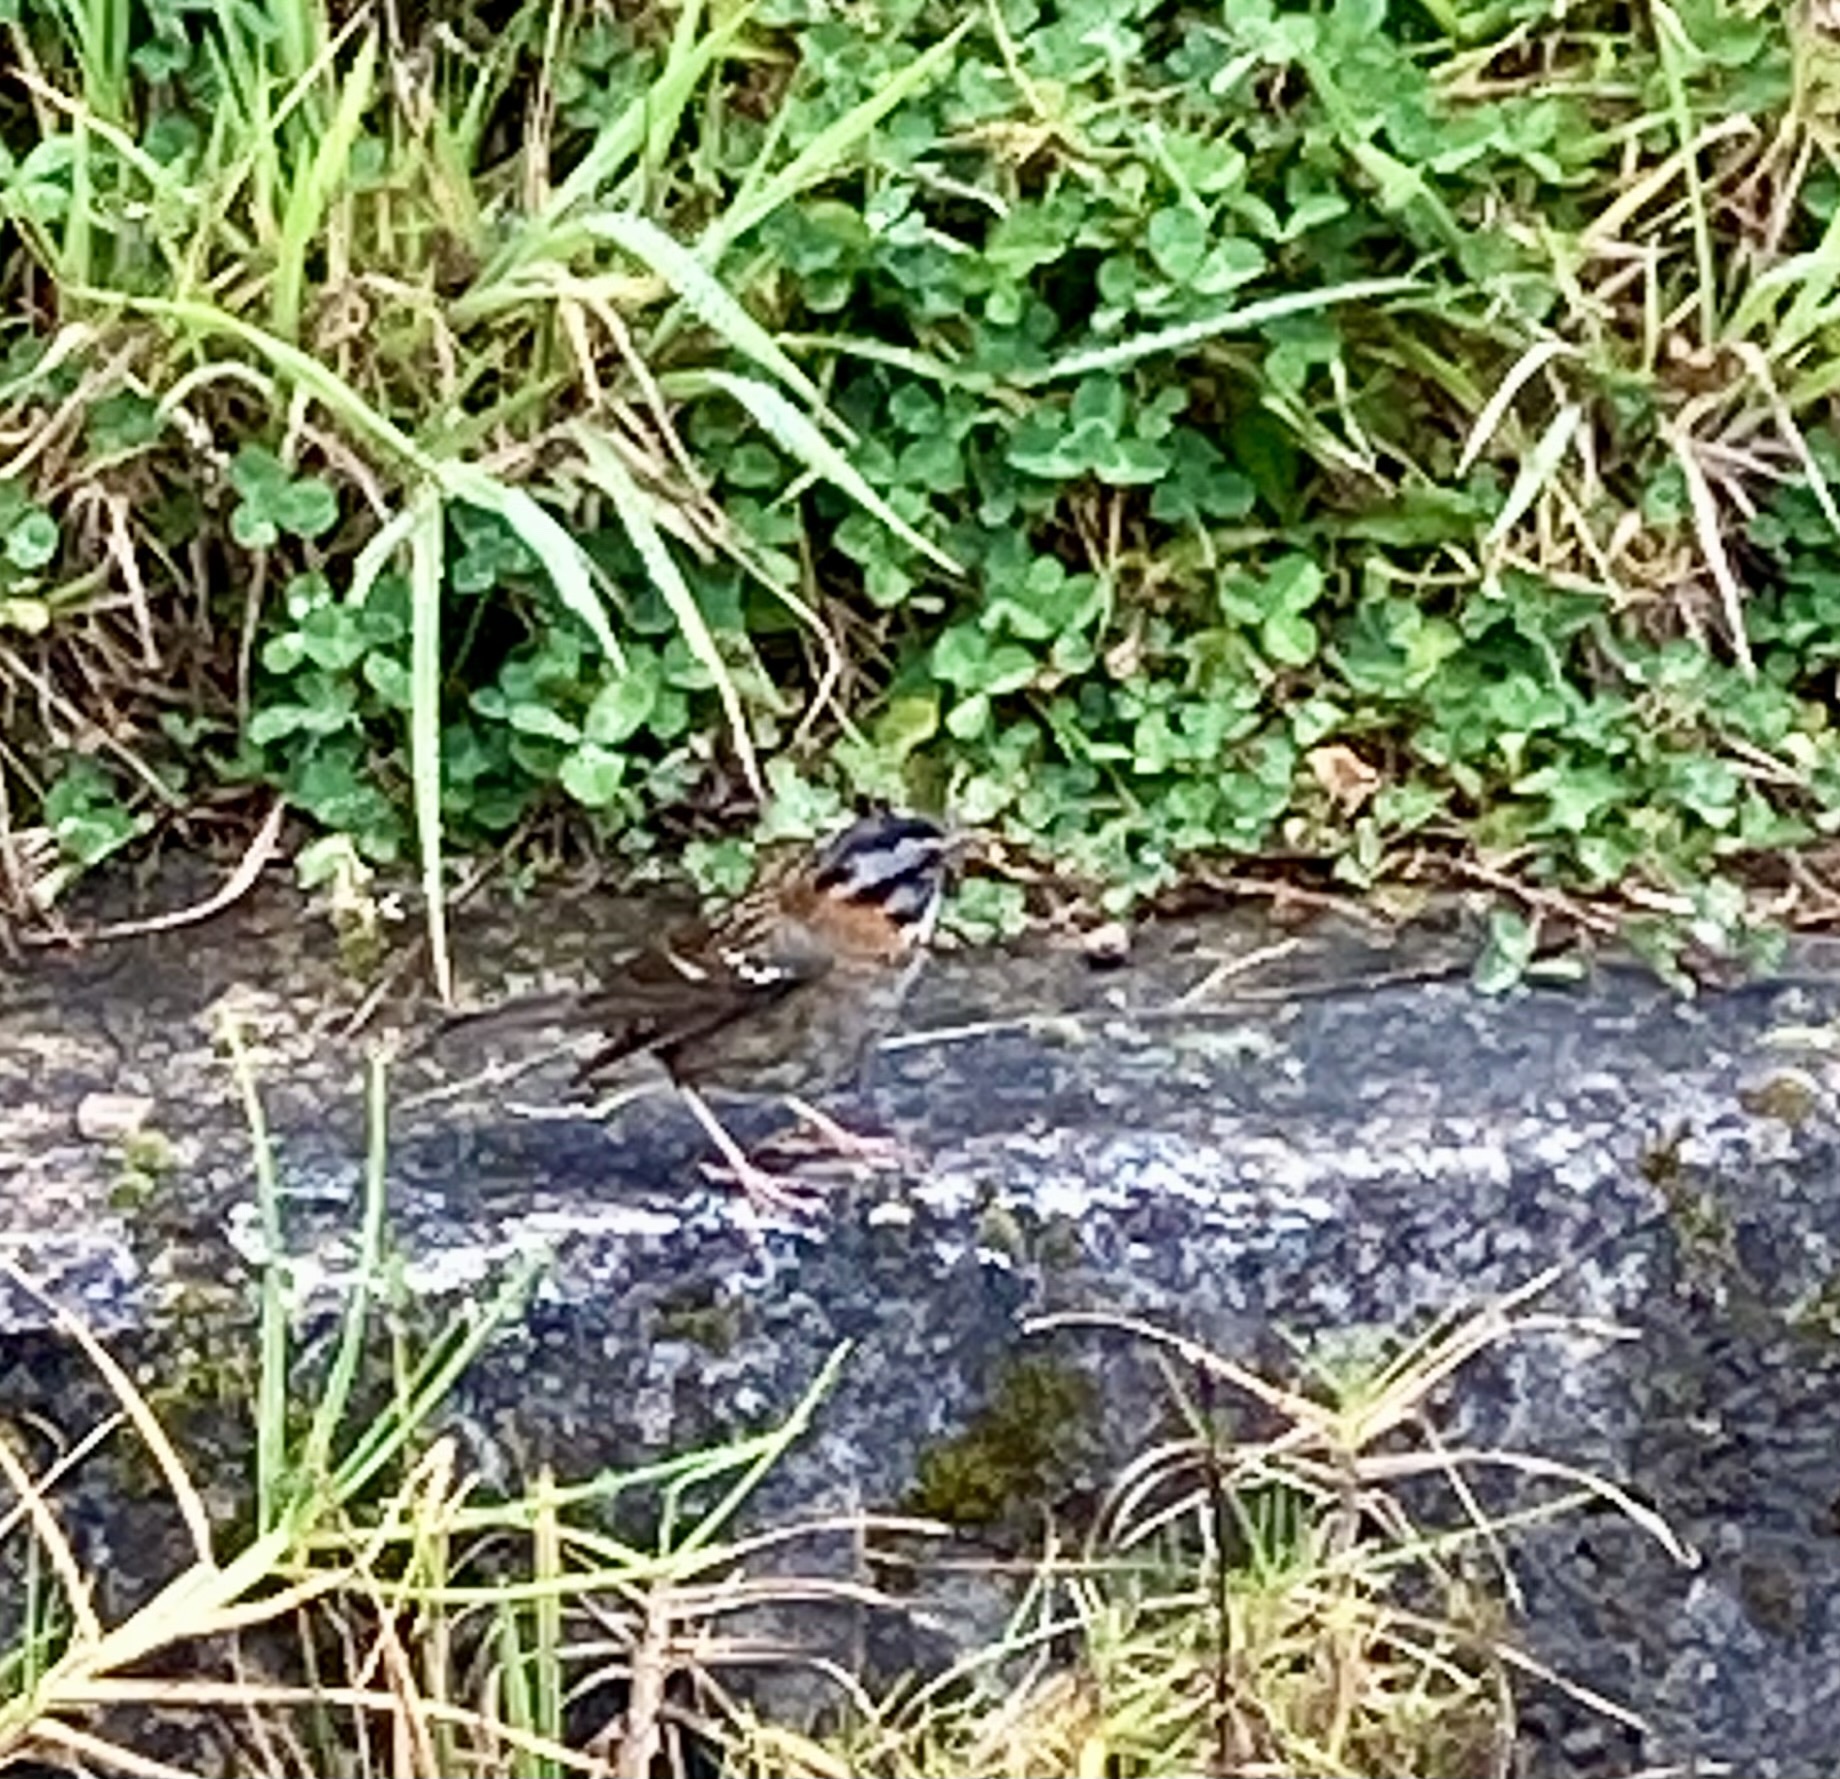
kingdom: Animalia
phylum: Chordata
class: Aves
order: Passeriformes
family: Passerellidae
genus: Zonotrichia
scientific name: Zonotrichia capensis
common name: Rufous-collared sparrow
